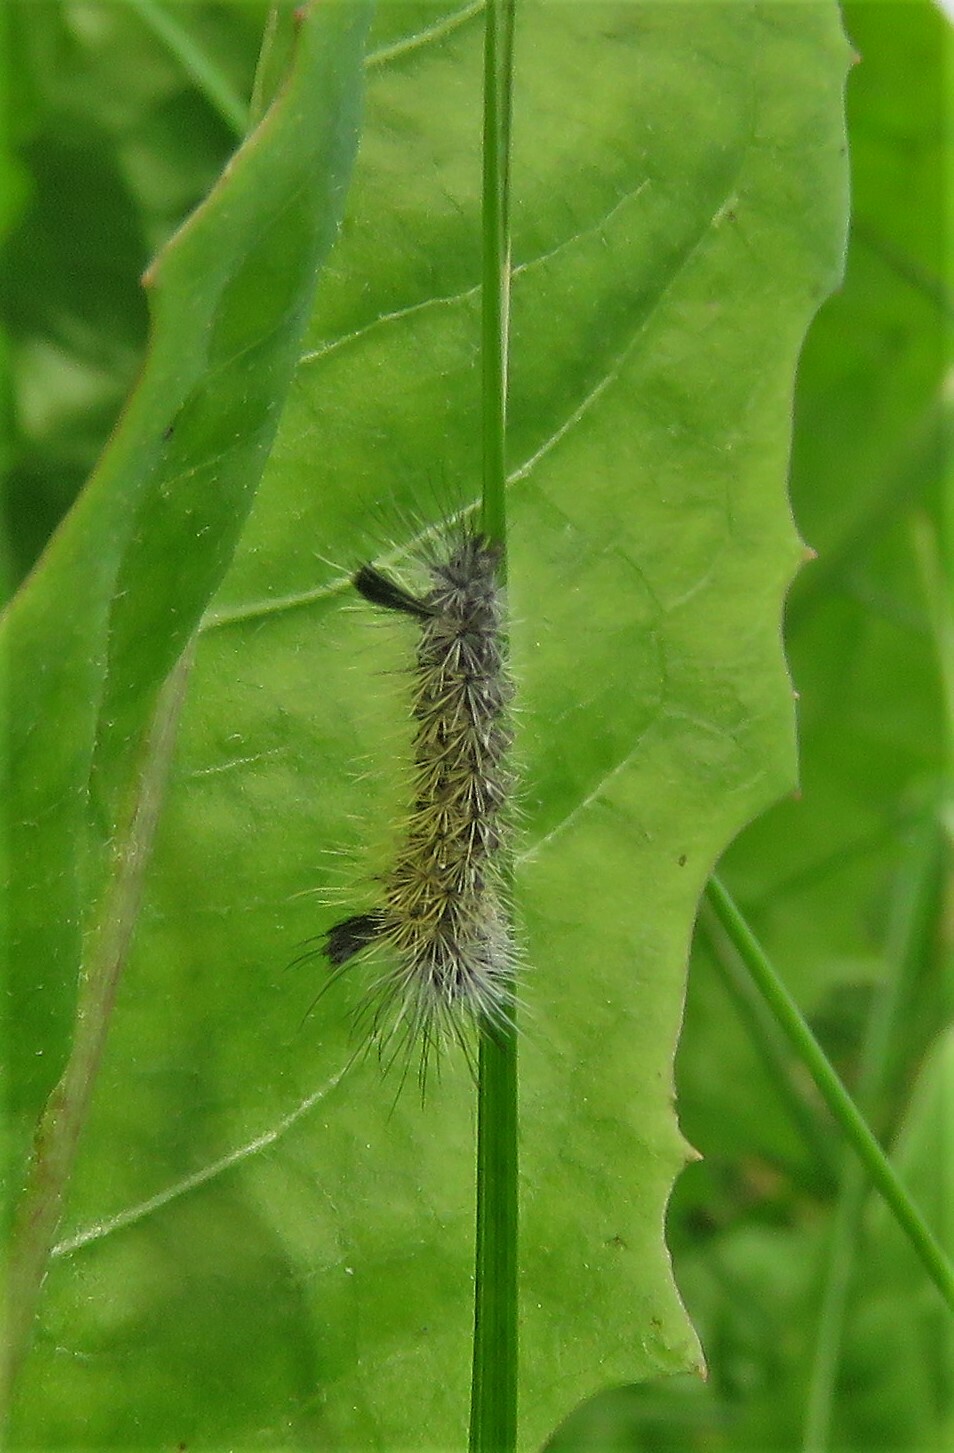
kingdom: Animalia
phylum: Arthropoda
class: Insecta
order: Lepidoptera
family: Erebidae
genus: Ctenucha
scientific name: Ctenucha virginica
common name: Virginia ctenucha moth
